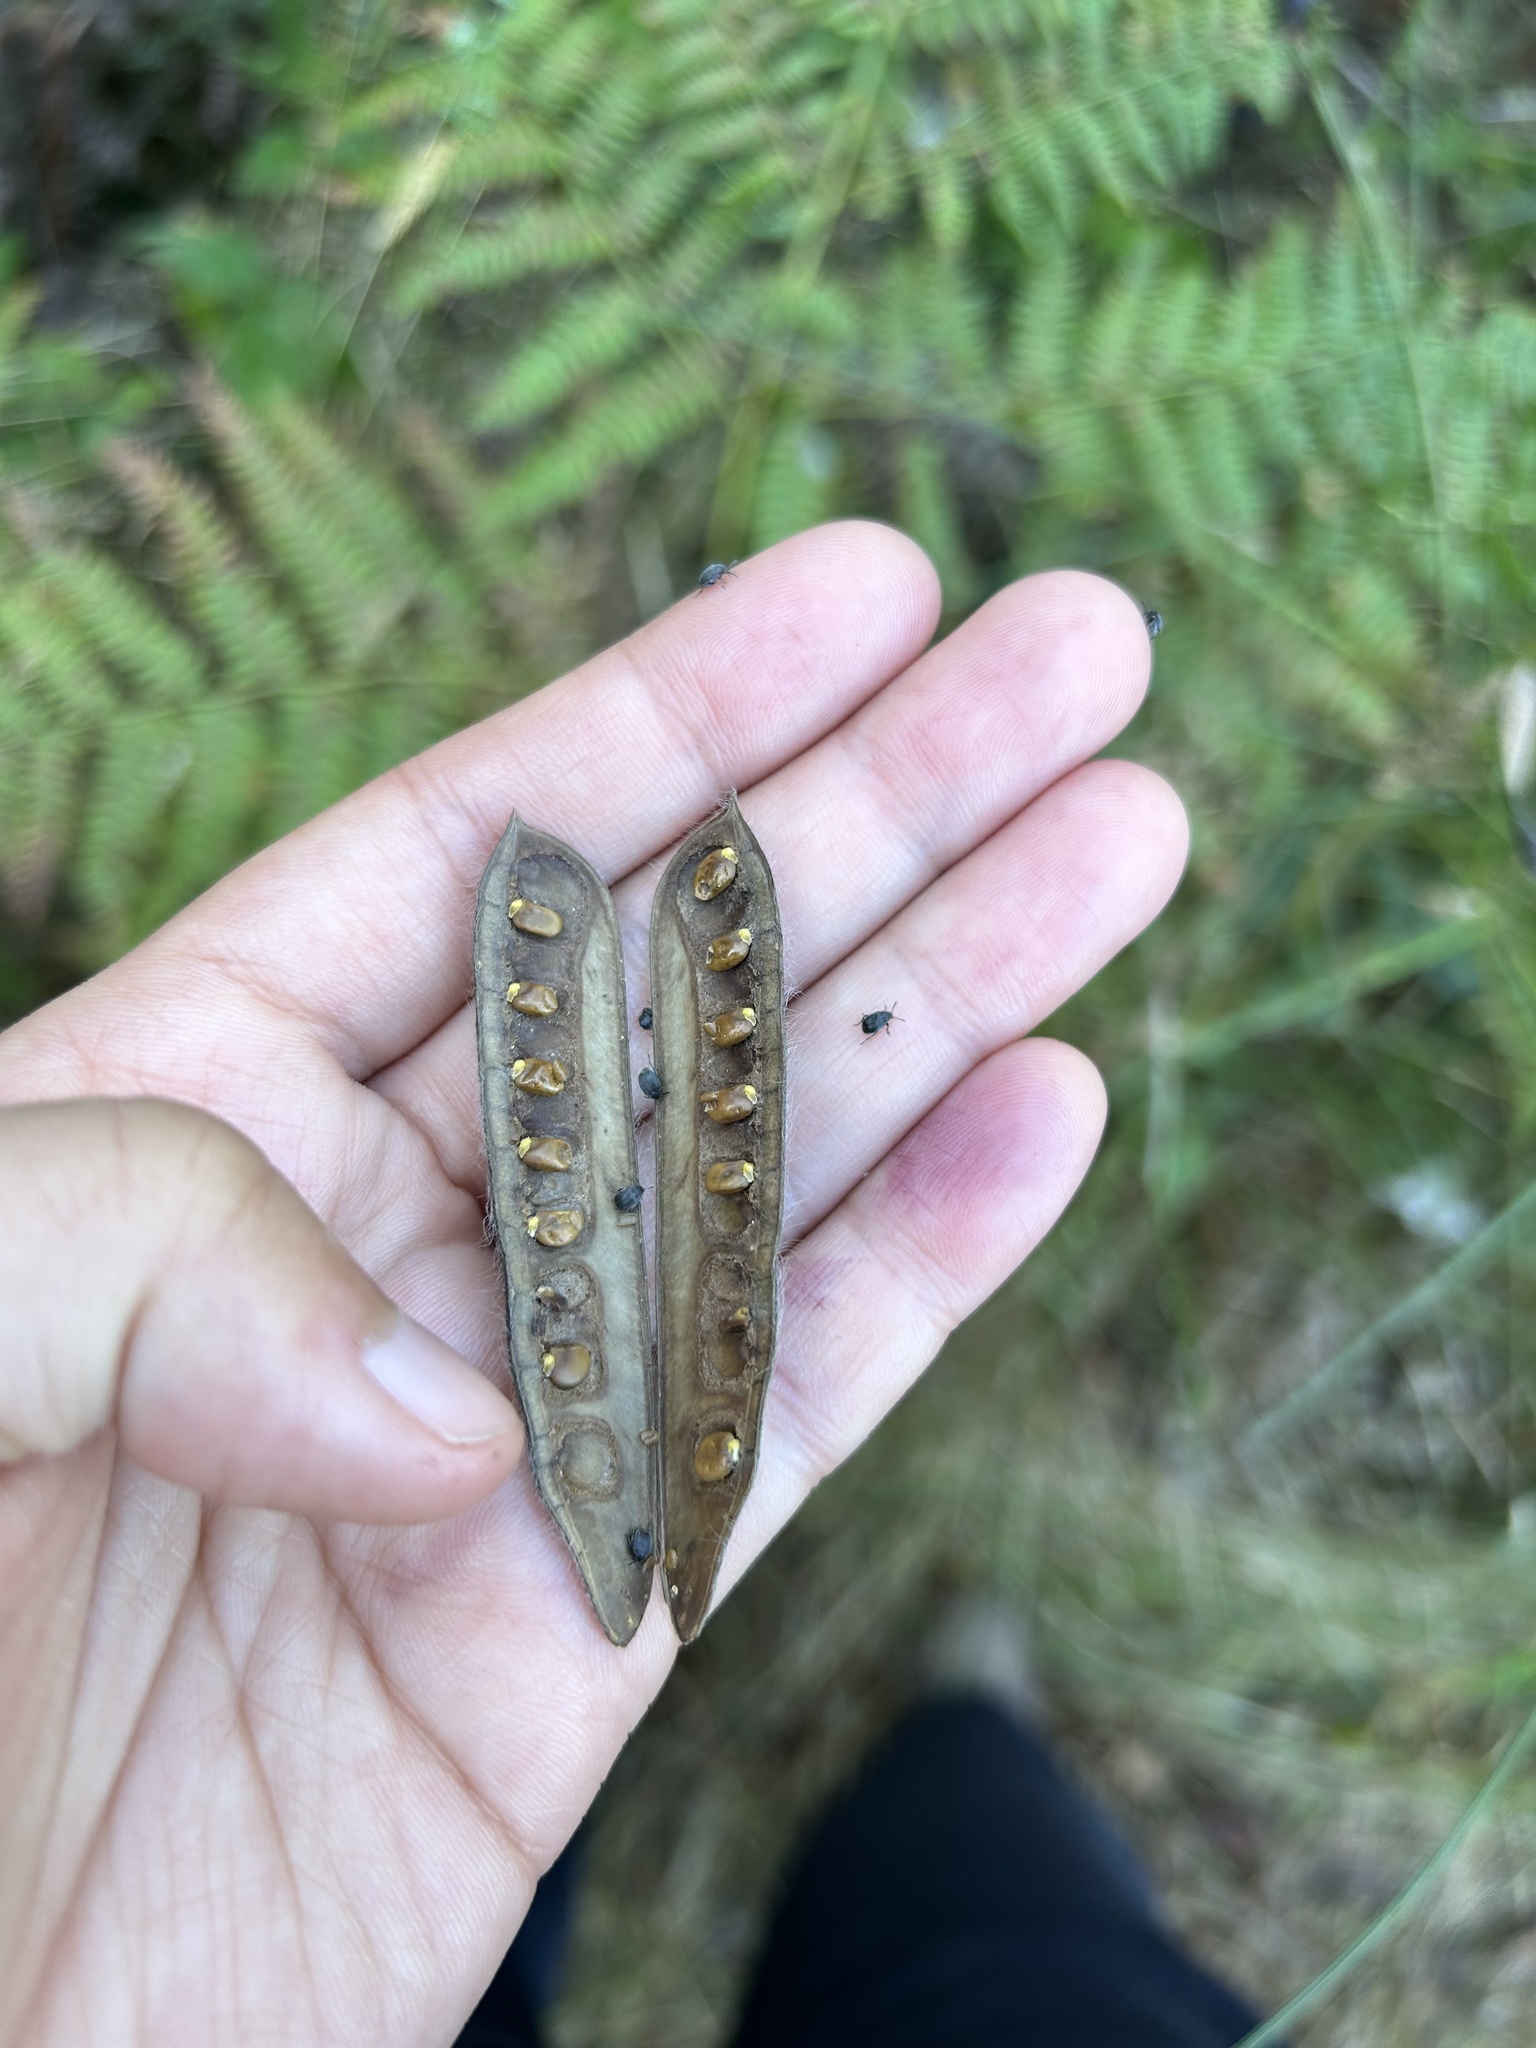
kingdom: Animalia
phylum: Arthropoda
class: Insecta
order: Coleoptera
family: Chrysomelidae
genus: Bruchidius
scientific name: Bruchidius villosus
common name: Scotch broom bruchid
